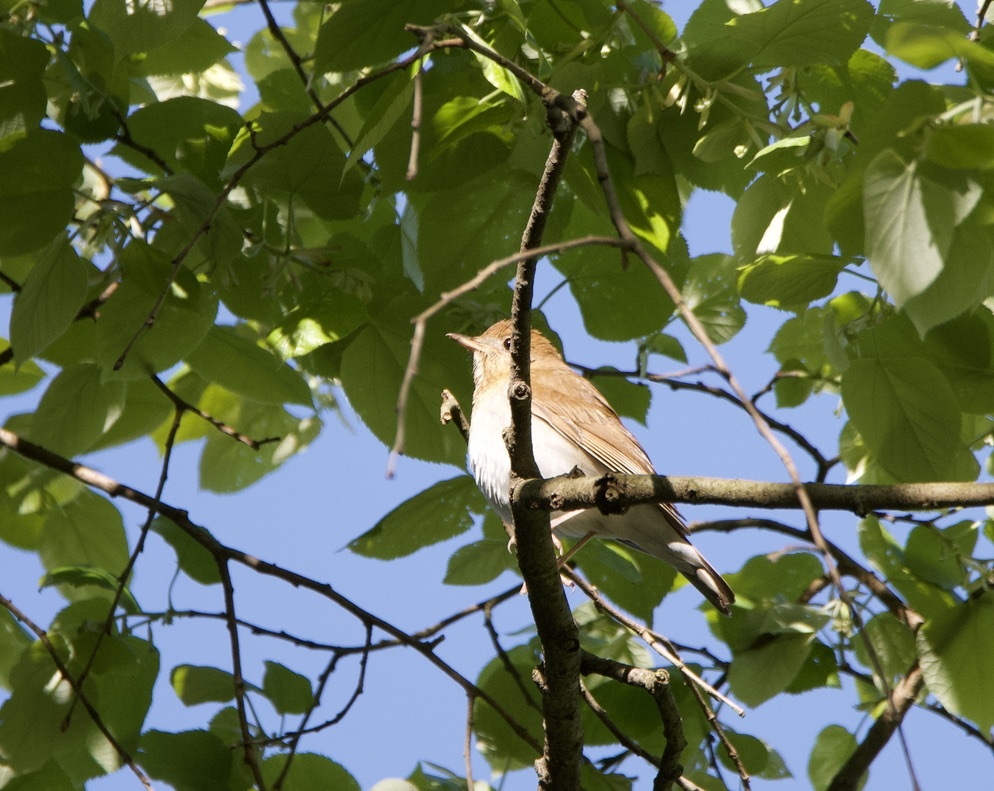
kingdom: Animalia
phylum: Chordata
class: Aves
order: Passeriformes
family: Turdidae
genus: Catharus
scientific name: Catharus fuscescens
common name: Veery
